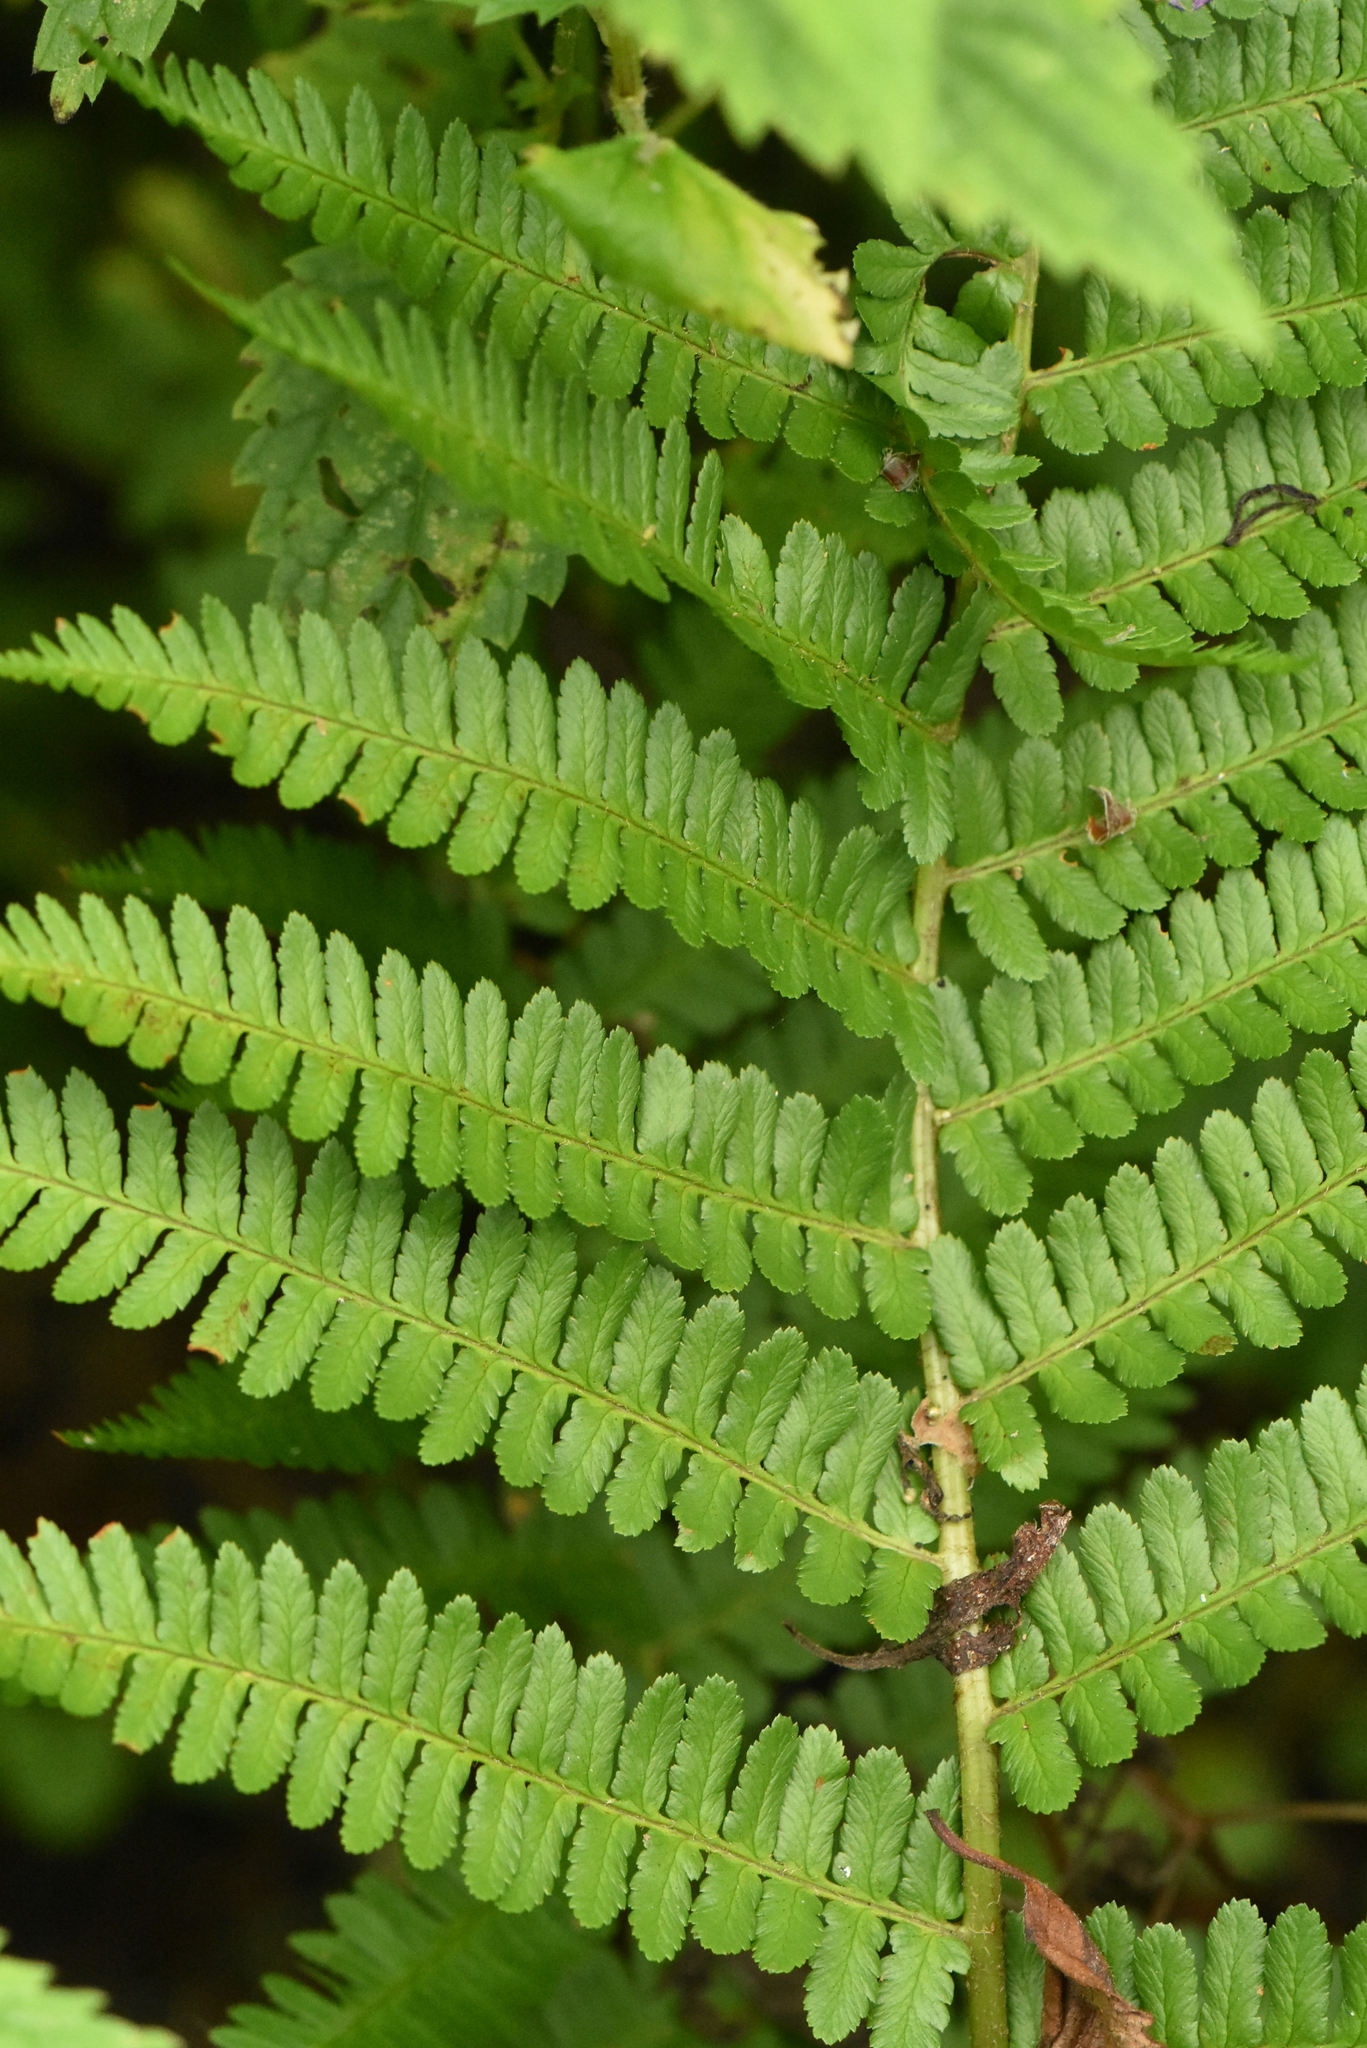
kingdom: Plantae
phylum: Tracheophyta
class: Polypodiopsida
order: Polypodiales
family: Dryopteridaceae
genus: Dryopteris
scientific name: Dryopteris filix-mas
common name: Male fern
